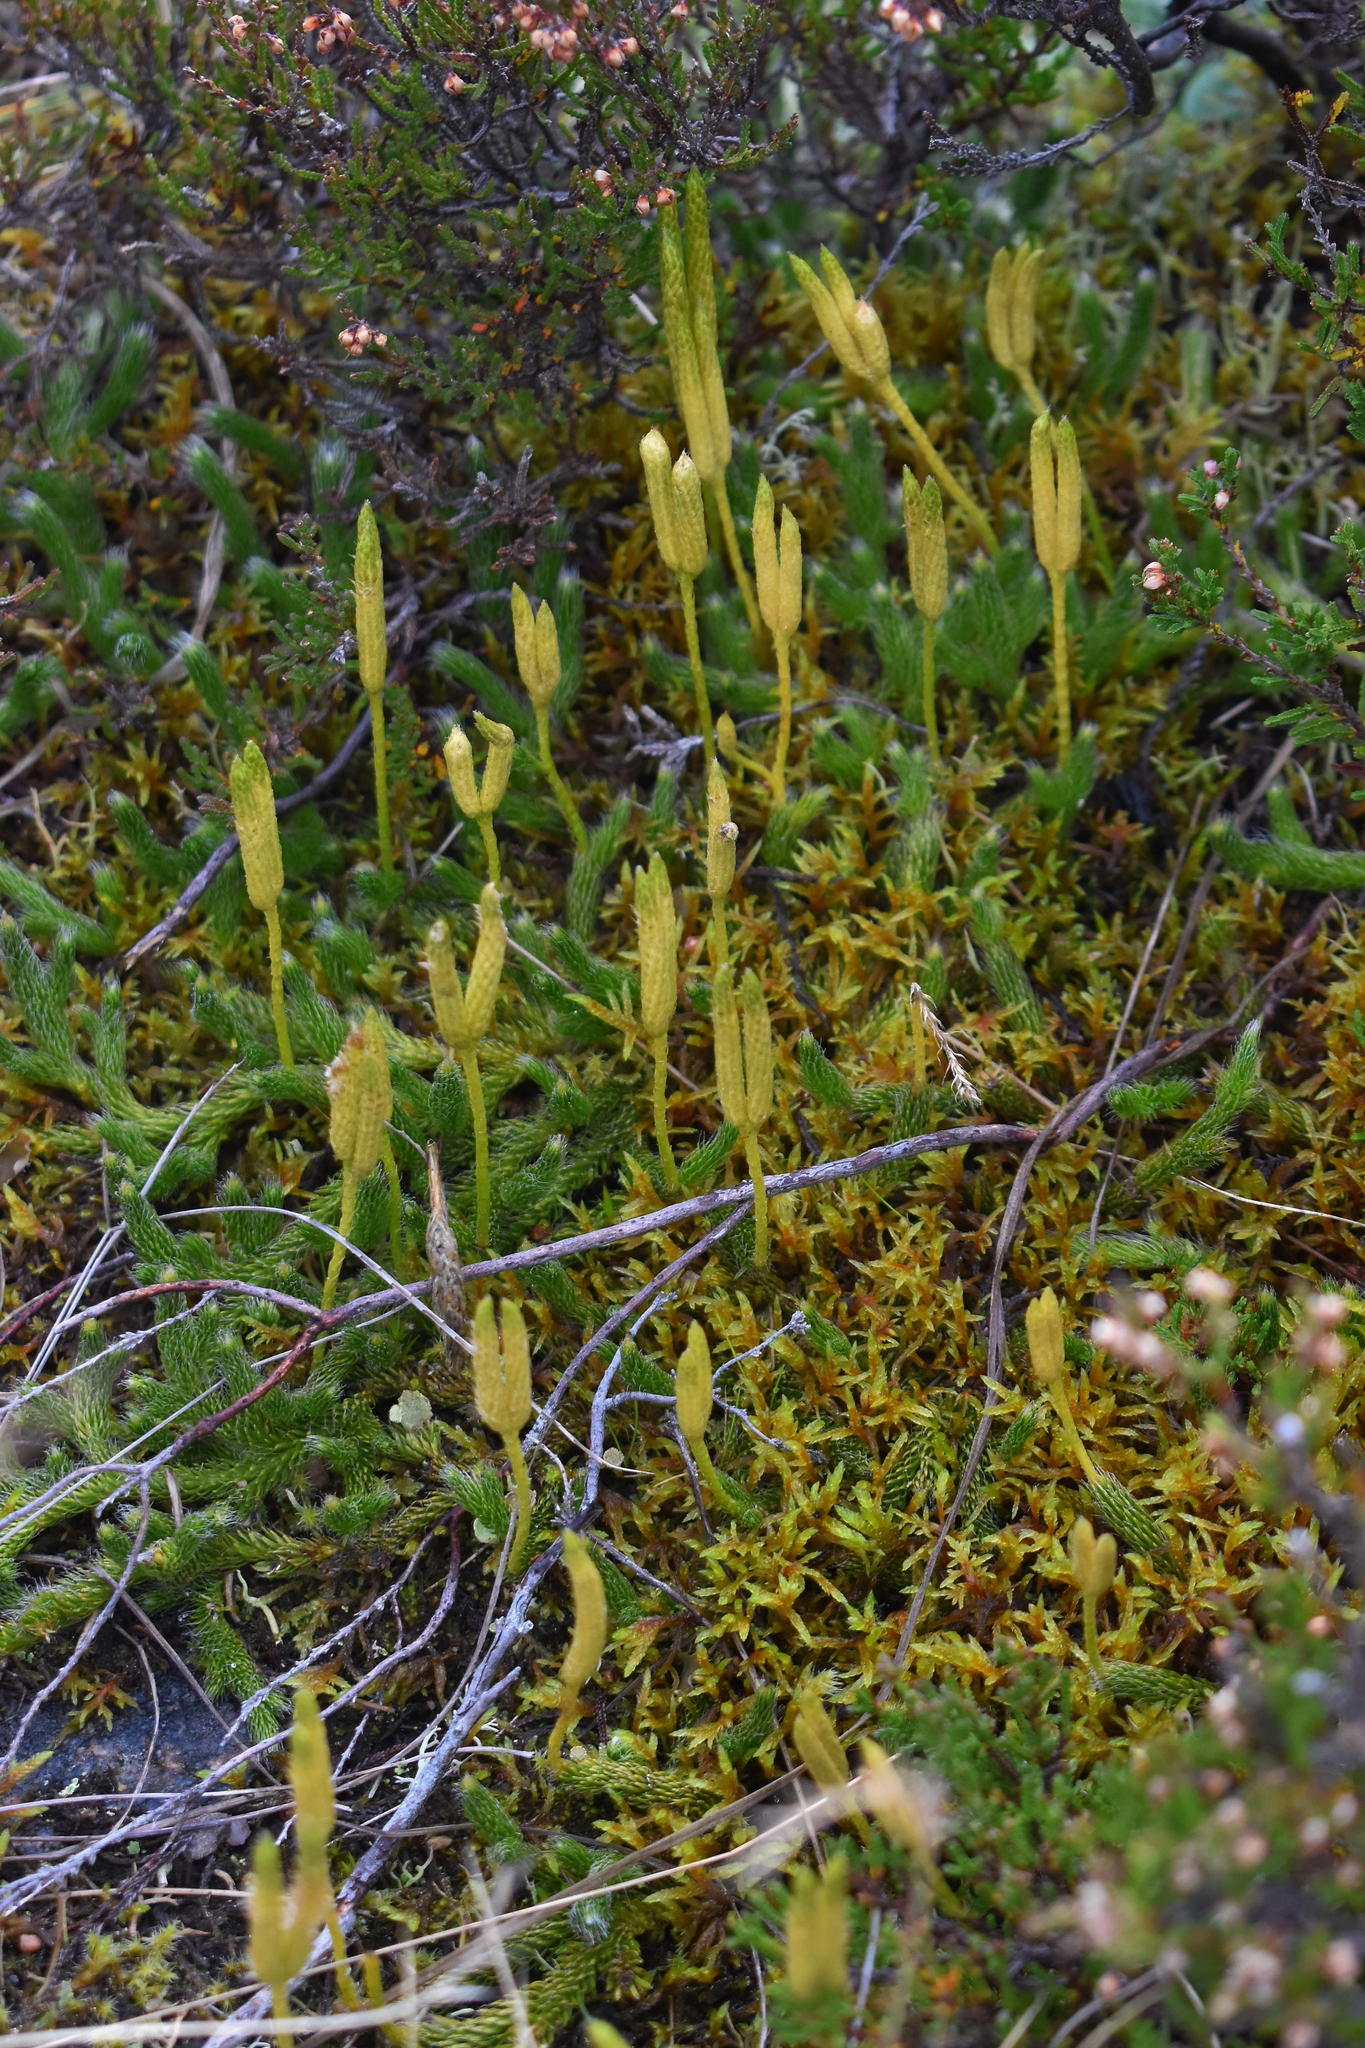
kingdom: Plantae
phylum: Tracheophyta
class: Lycopodiopsida
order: Lycopodiales
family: Lycopodiaceae
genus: Lycopodium
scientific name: Lycopodium clavatum
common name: Stag's-horn clubmoss
